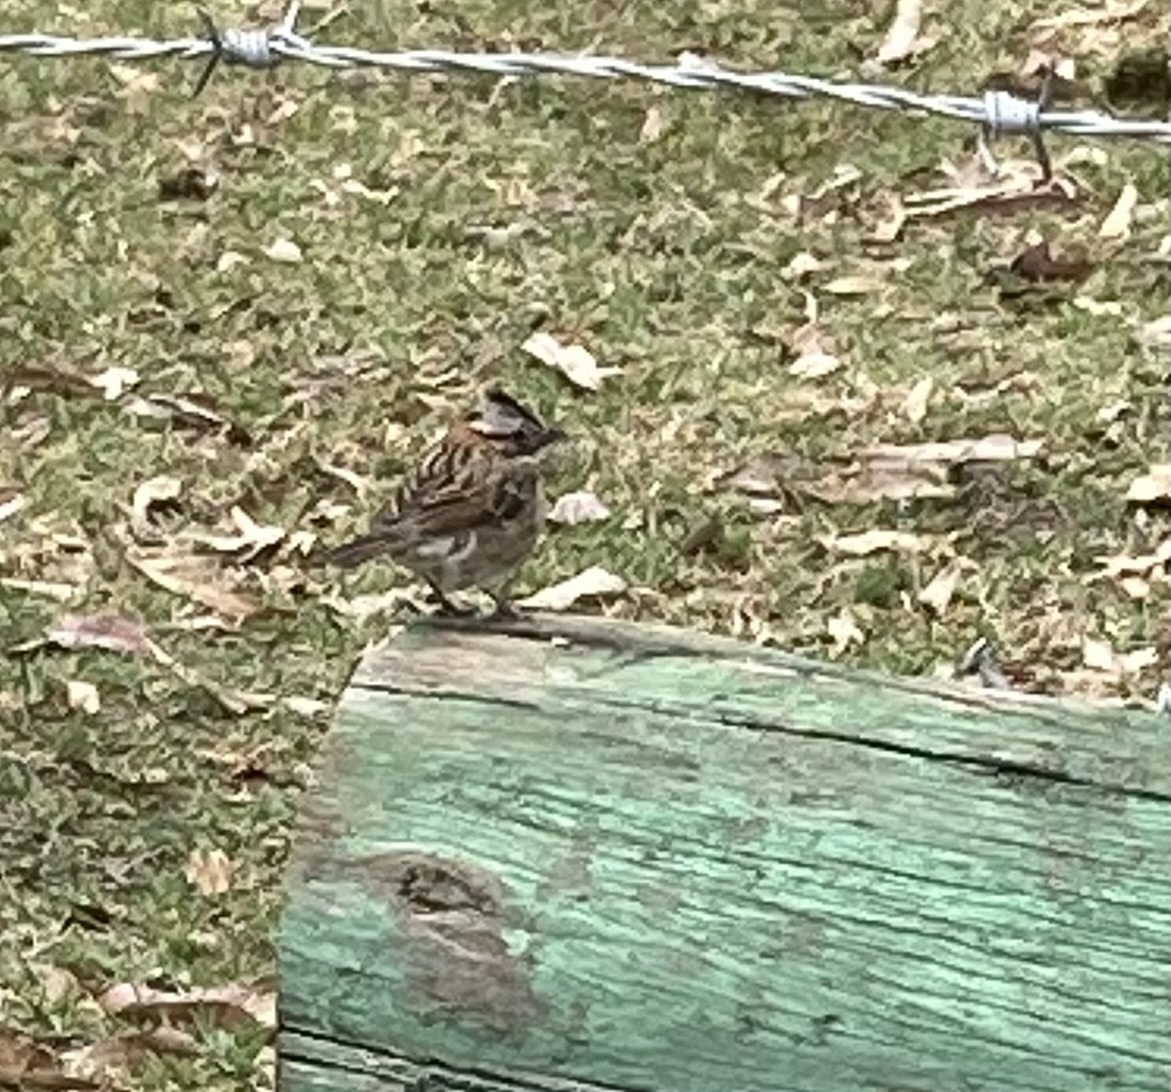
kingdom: Animalia
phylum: Chordata
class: Aves
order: Passeriformes
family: Passerellidae
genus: Zonotrichia
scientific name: Zonotrichia capensis
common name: Rufous-collared sparrow
